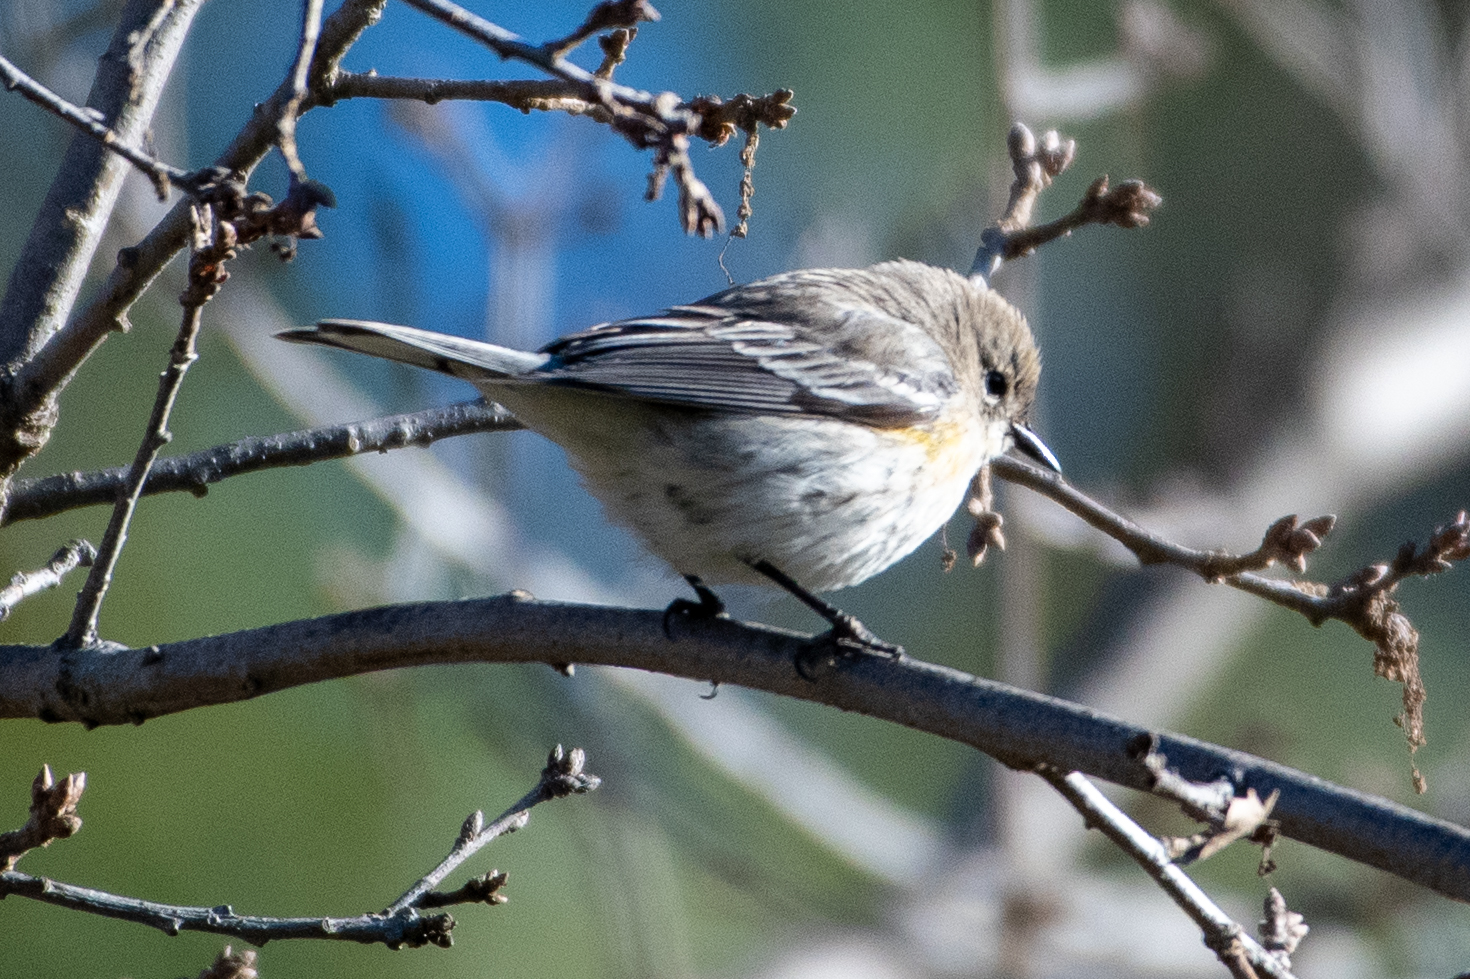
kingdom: Animalia
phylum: Chordata
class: Aves
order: Passeriformes
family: Parulidae
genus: Setophaga
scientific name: Setophaga coronata
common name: Myrtle warbler
